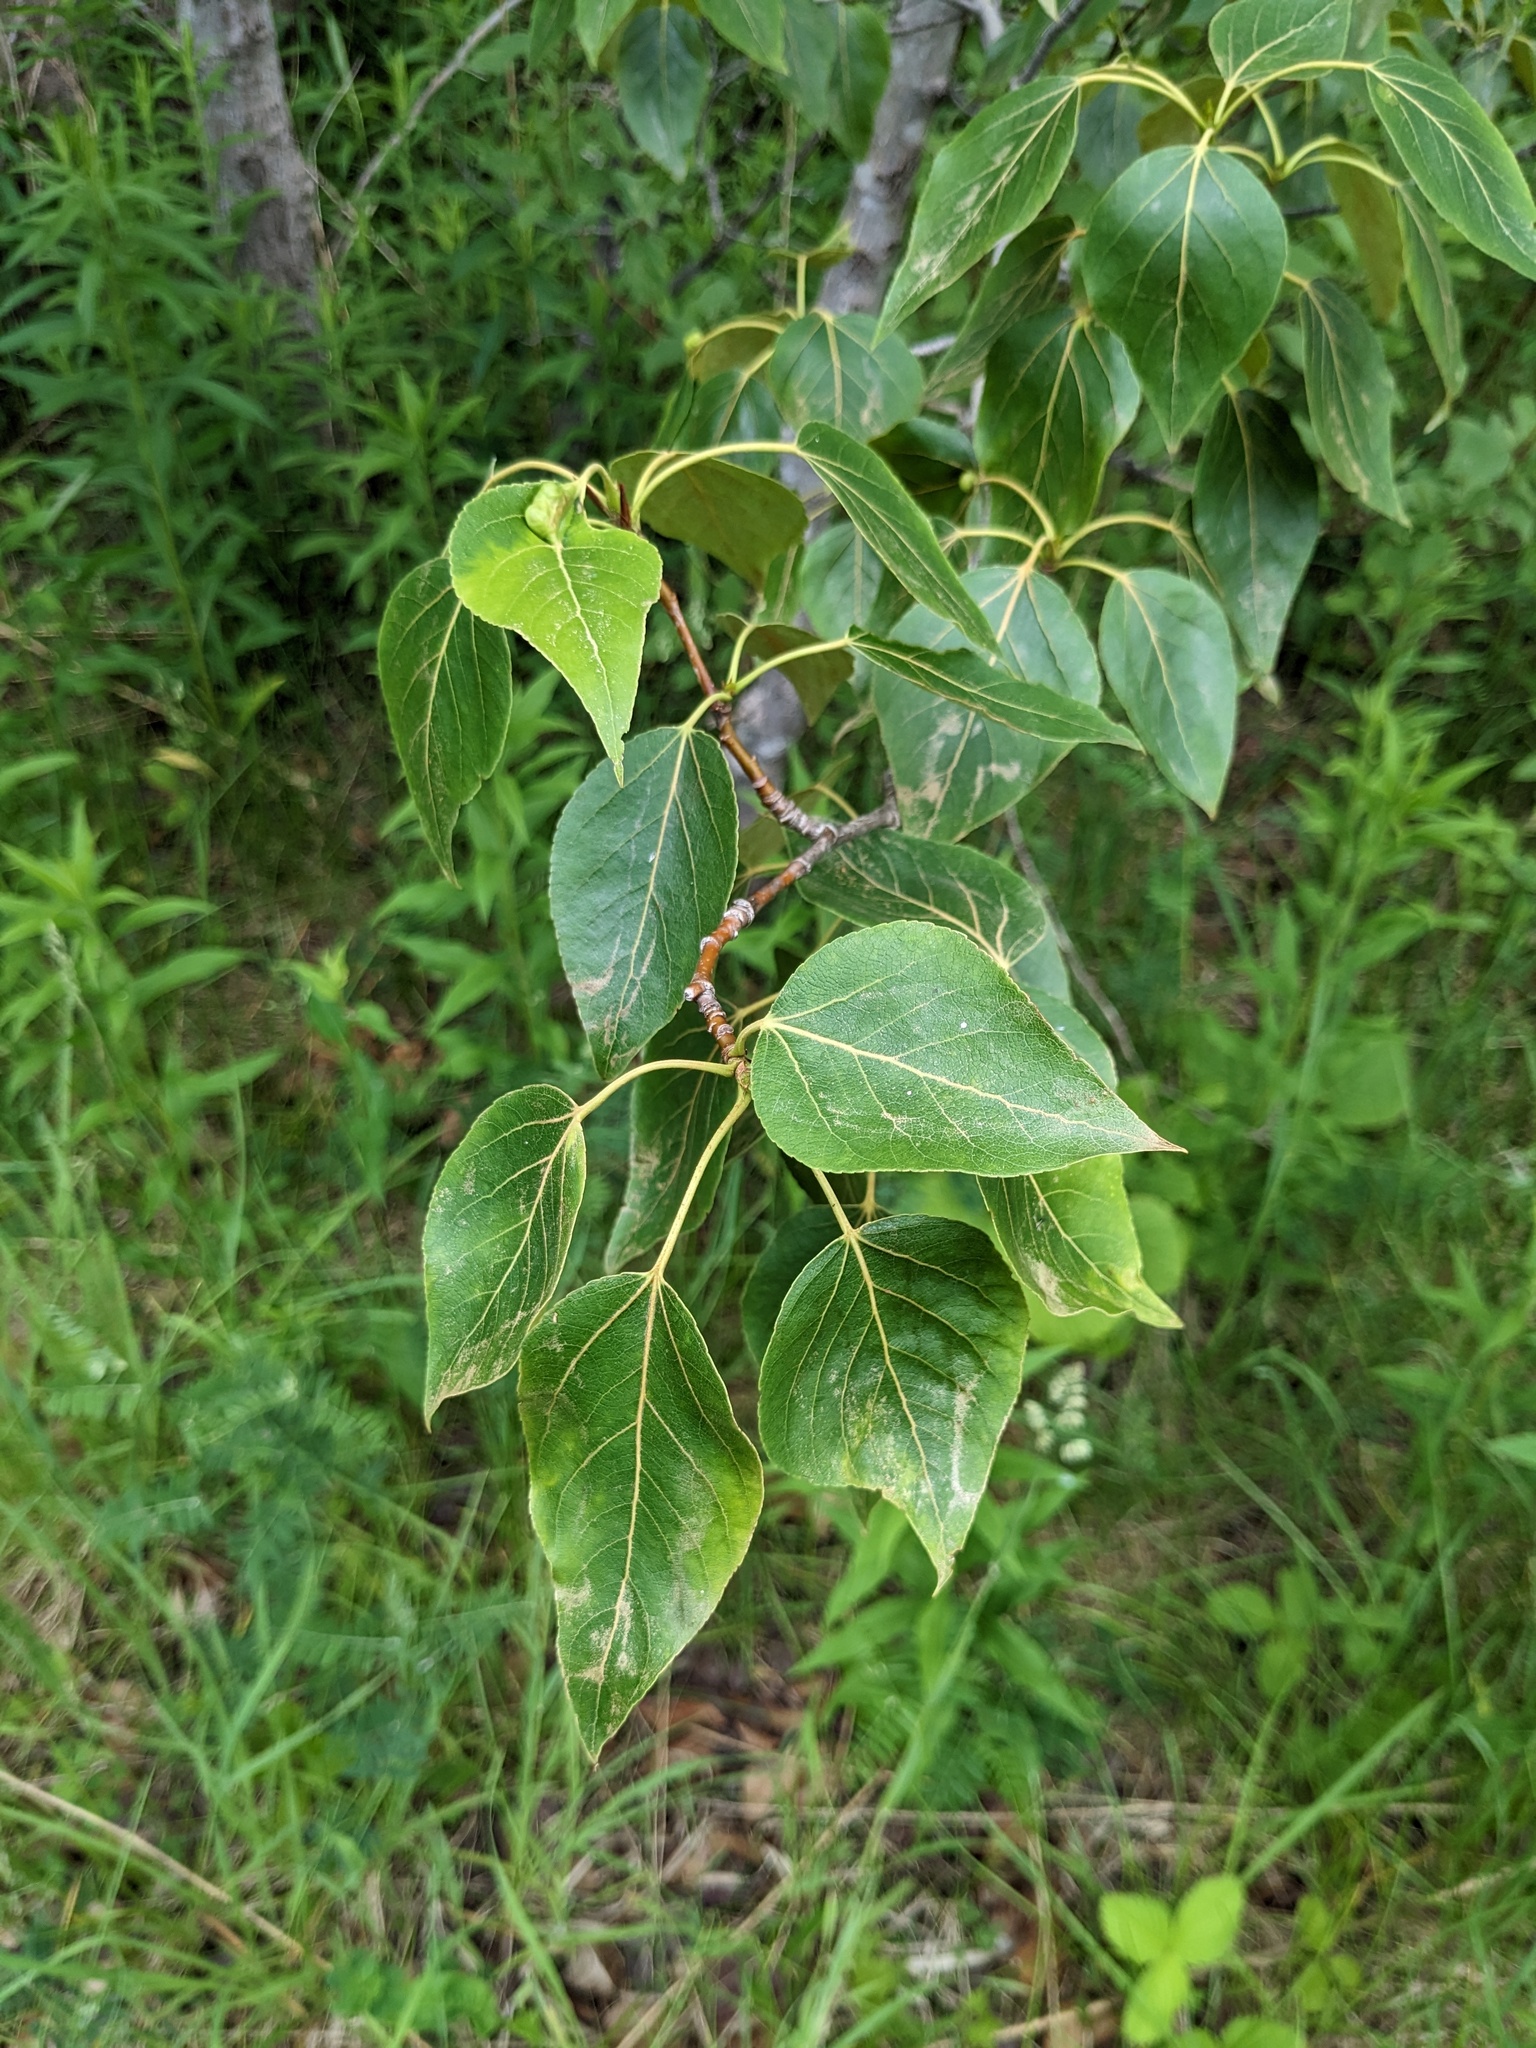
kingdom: Plantae
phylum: Tracheophyta
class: Magnoliopsida
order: Malpighiales
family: Salicaceae
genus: Populus
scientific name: Populus balsamifera
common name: Balsam poplar
